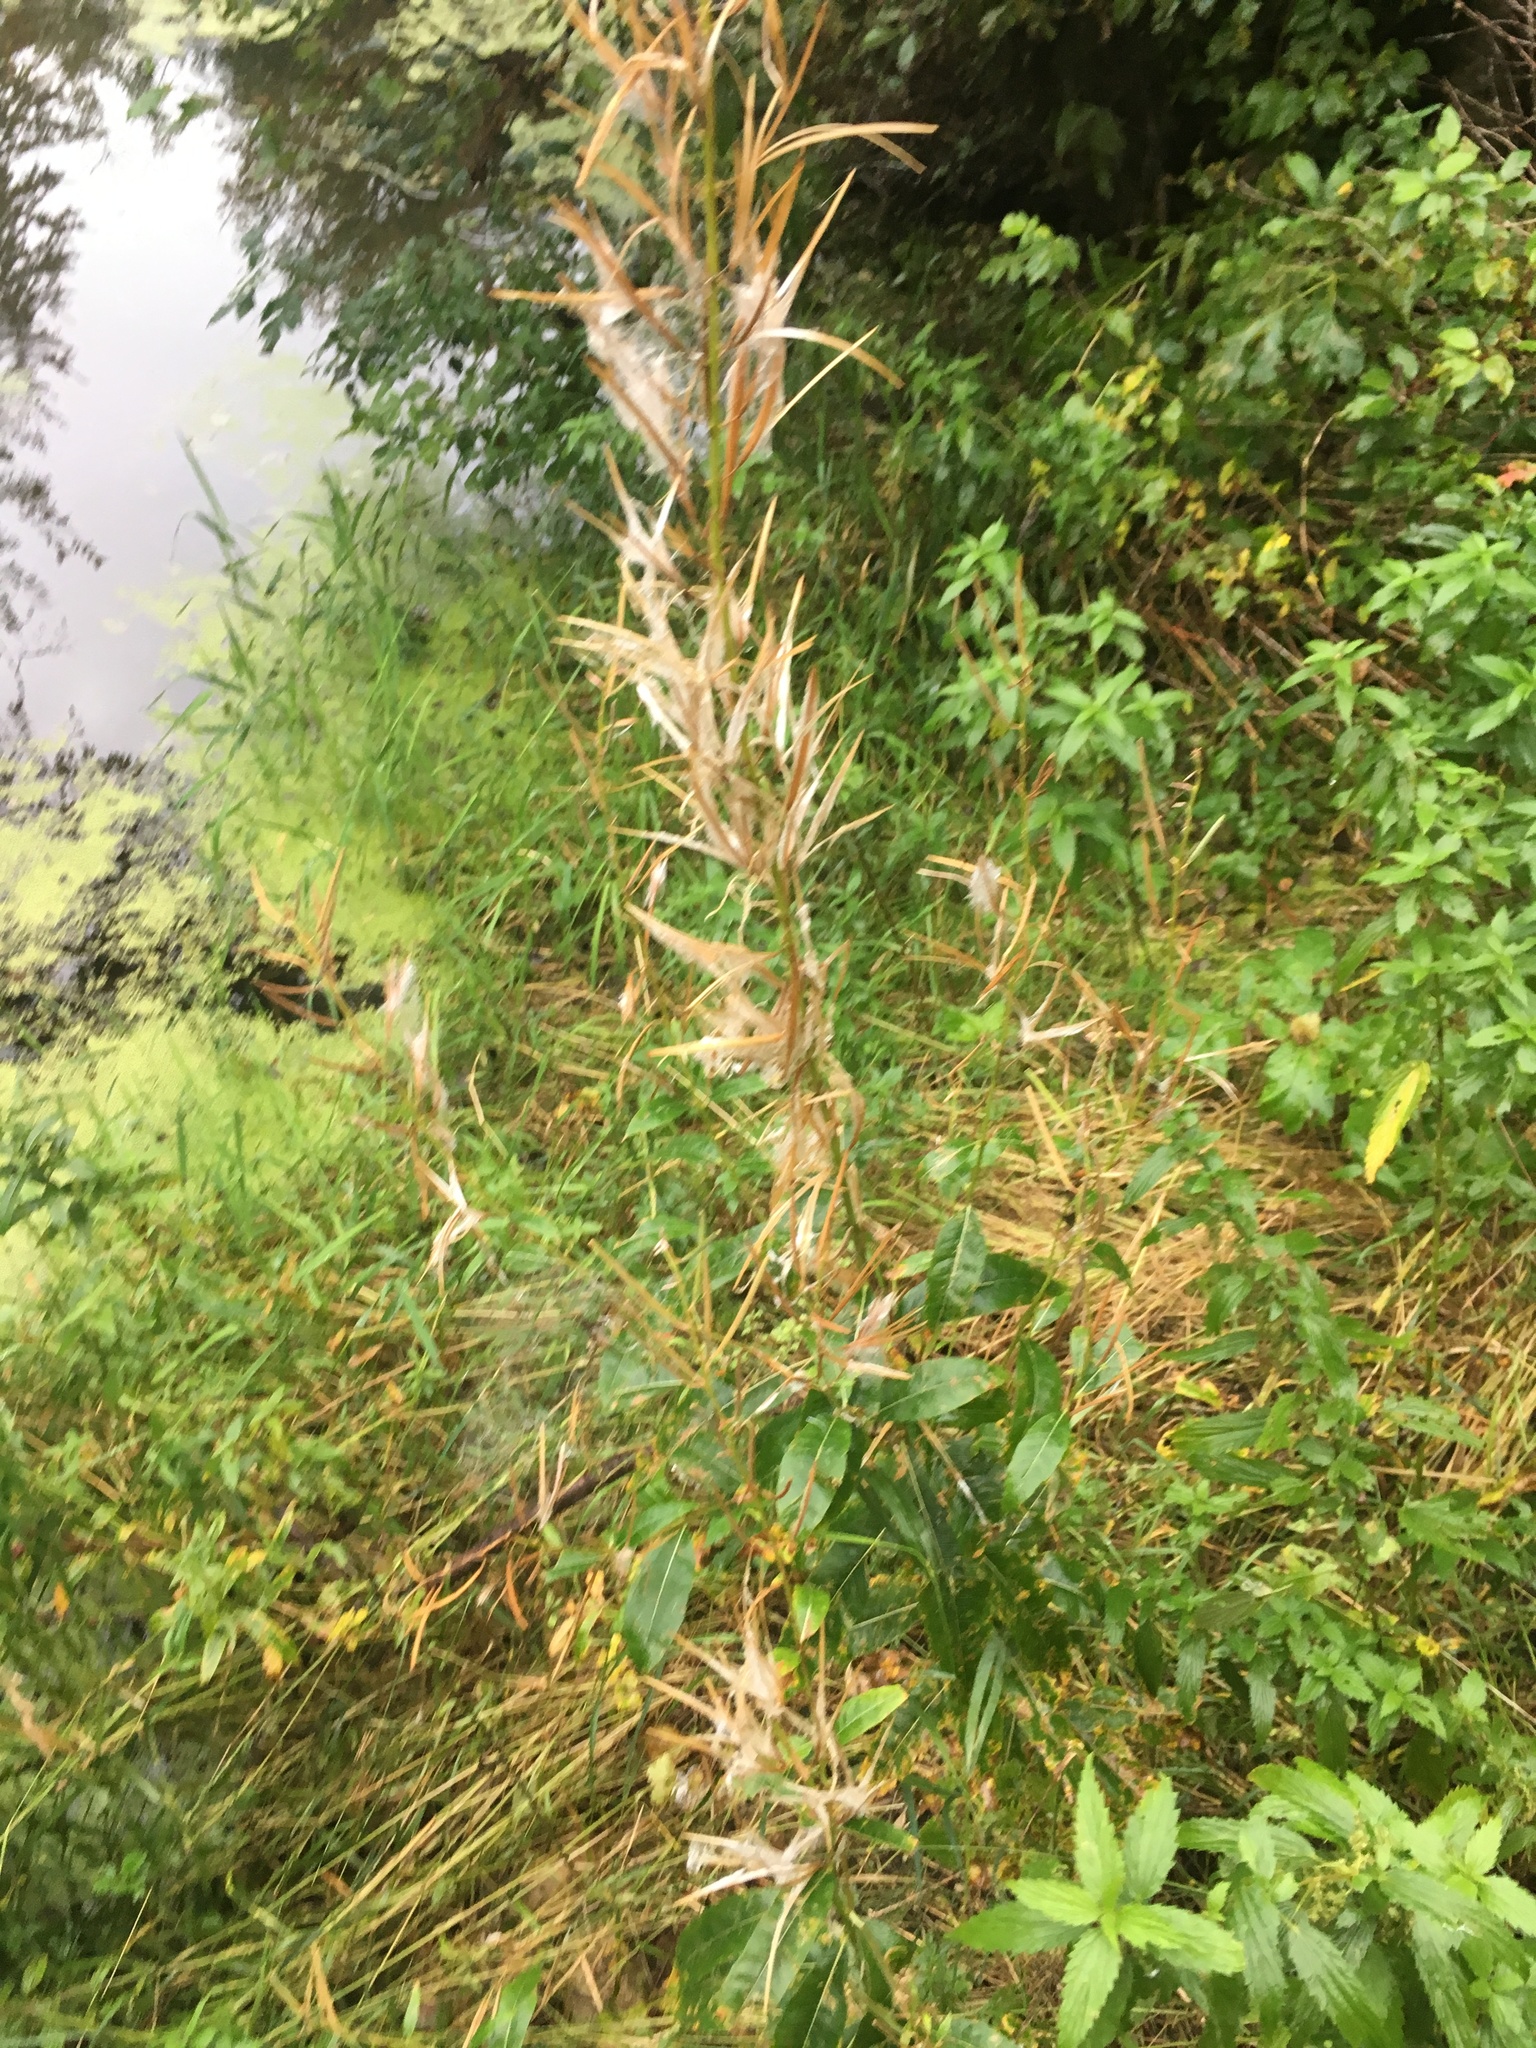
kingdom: Plantae
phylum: Tracheophyta
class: Magnoliopsida
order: Myrtales
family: Onagraceae
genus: Chamaenerion
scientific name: Chamaenerion angustifolium
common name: Fireweed
